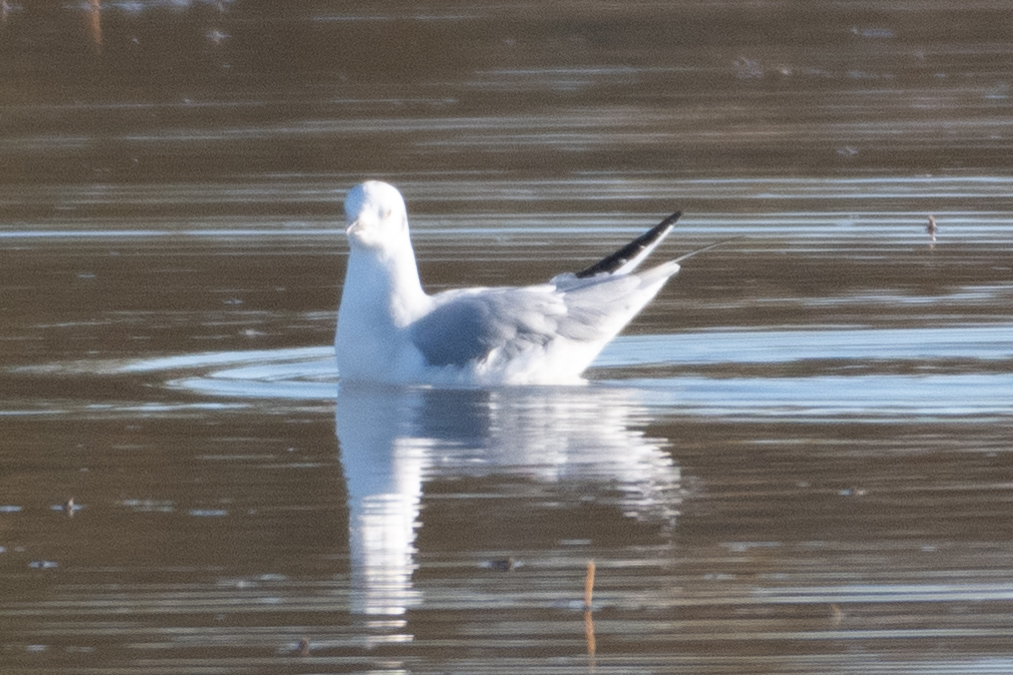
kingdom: Animalia
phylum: Chordata
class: Aves
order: Charadriiformes
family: Laridae
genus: Chroicocephalus
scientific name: Chroicocephalus philadelphia
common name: Bonaparte's gull
